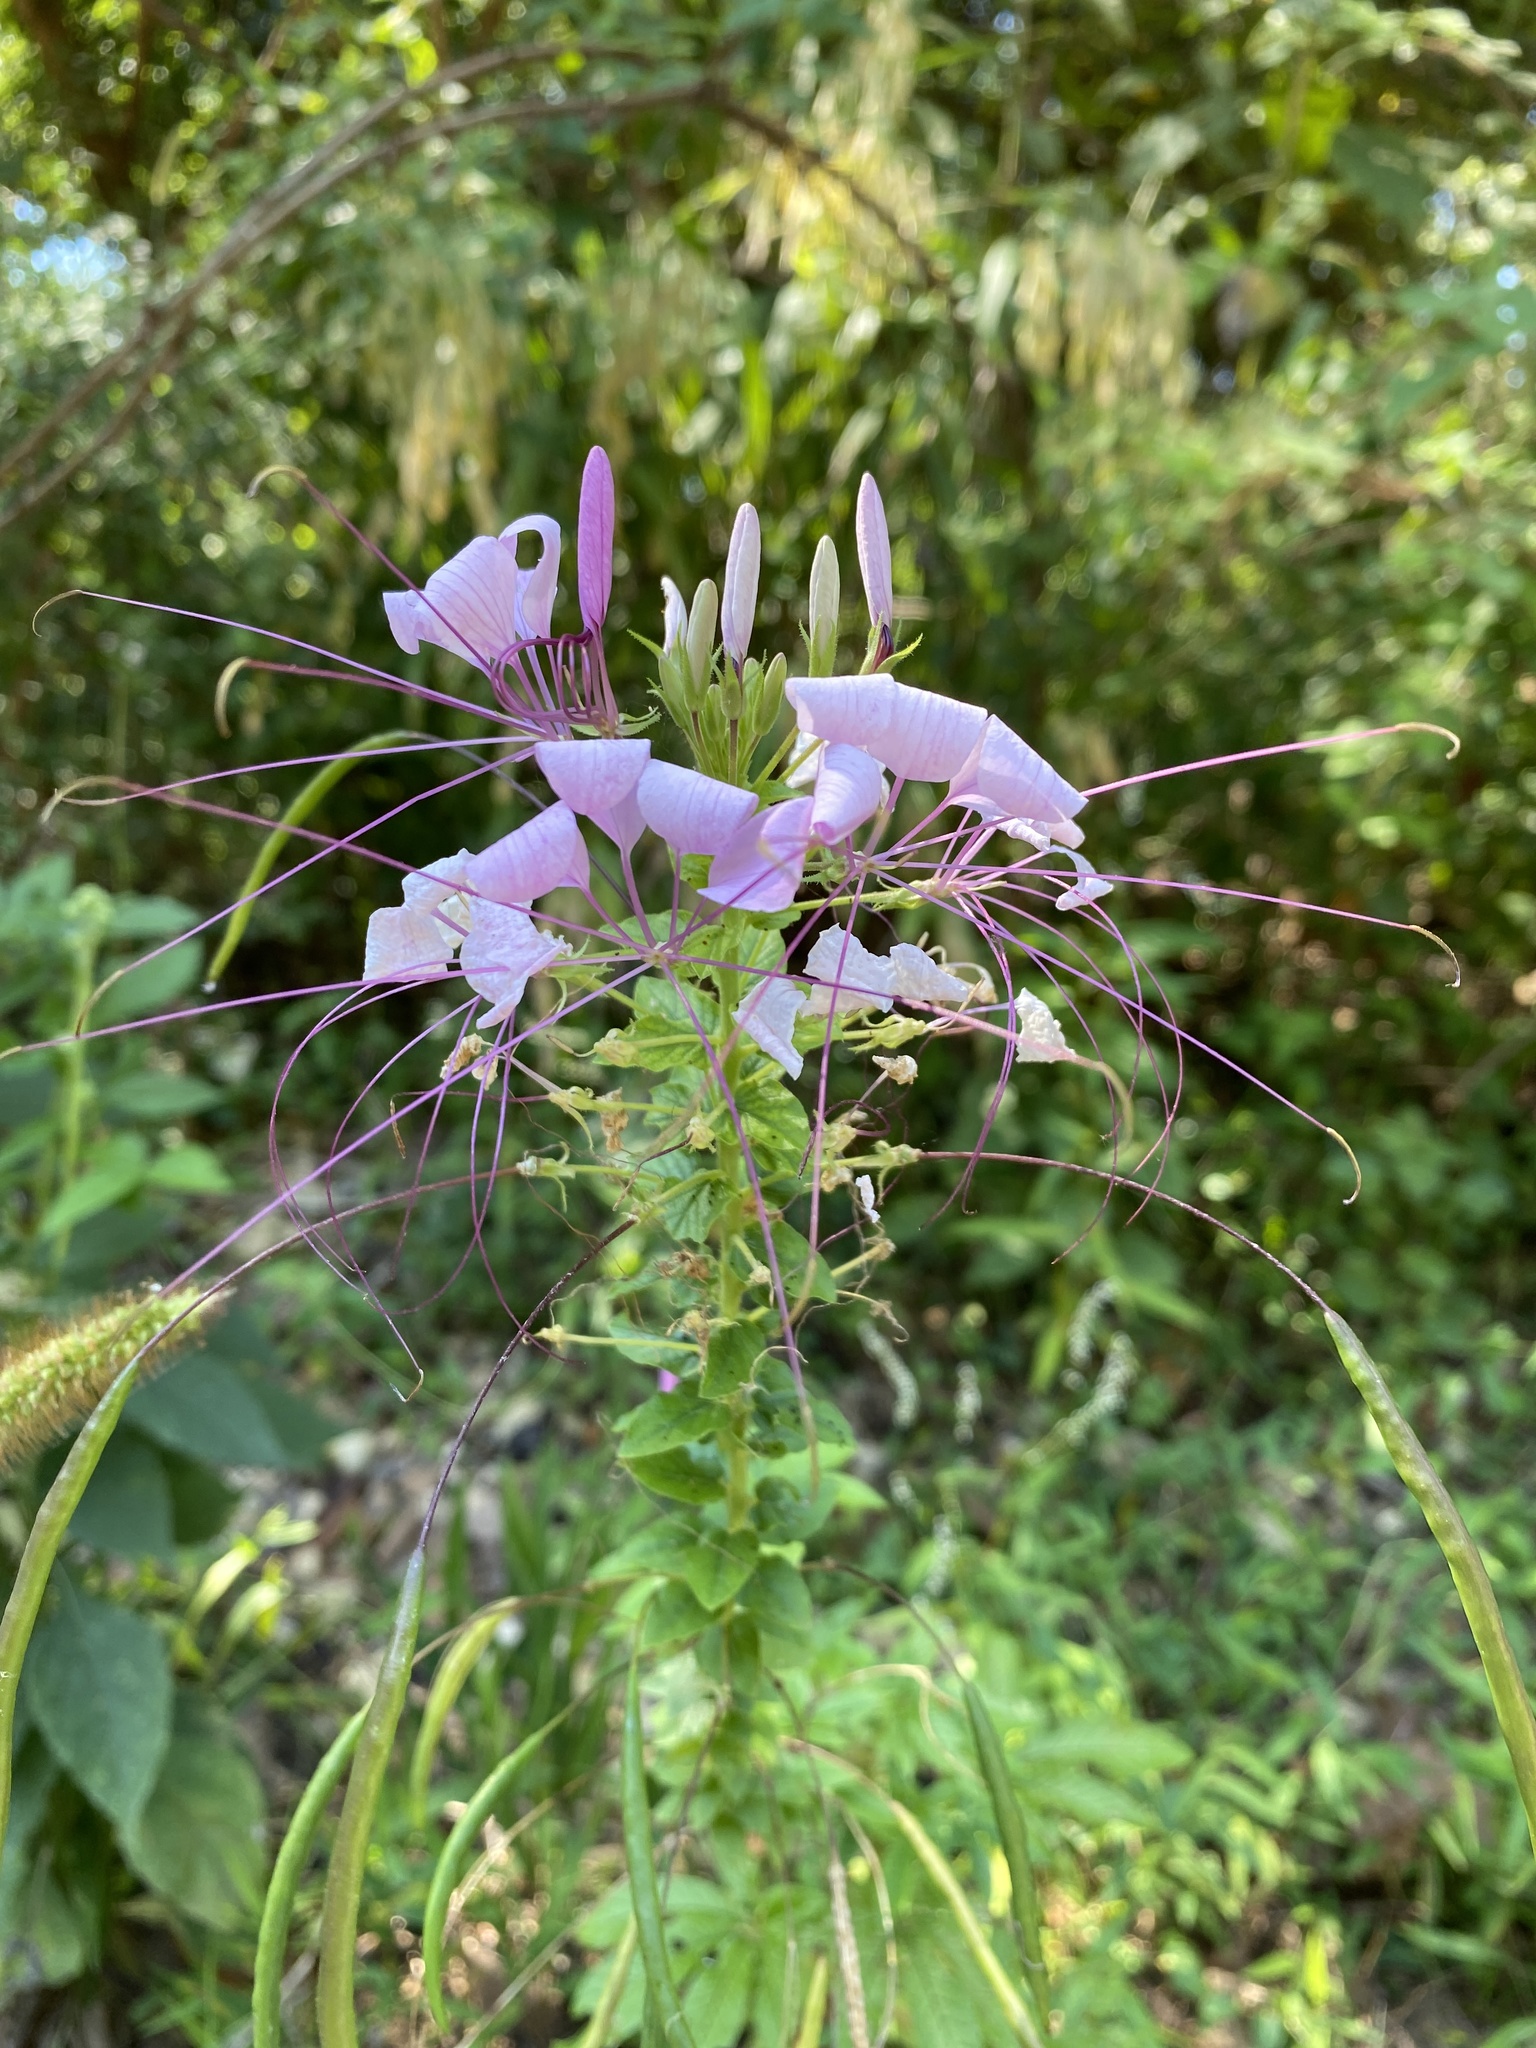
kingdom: Plantae
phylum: Tracheophyta
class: Magnoliopsida
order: Brassicales
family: Cleomaceae
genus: Tarenaya
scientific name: Tarenaya houtteana
